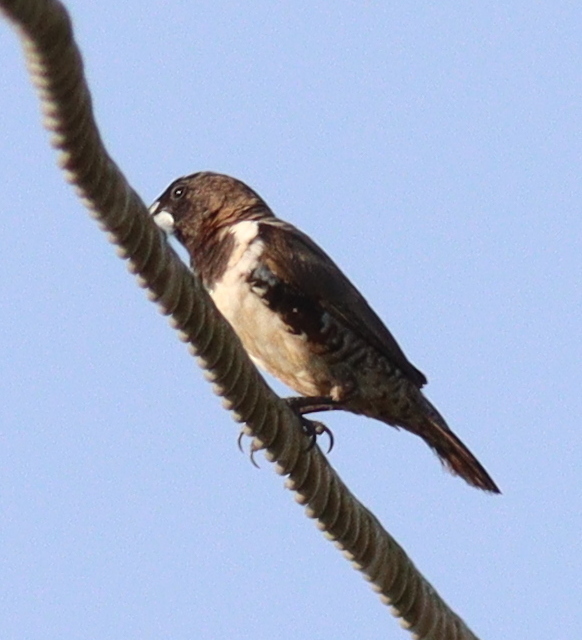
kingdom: Animalia
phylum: Chordata
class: Aves
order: Passeriformes
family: Estrildidae
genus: Lonchura
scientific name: Lonchura cucullata
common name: Bronze mannikin
